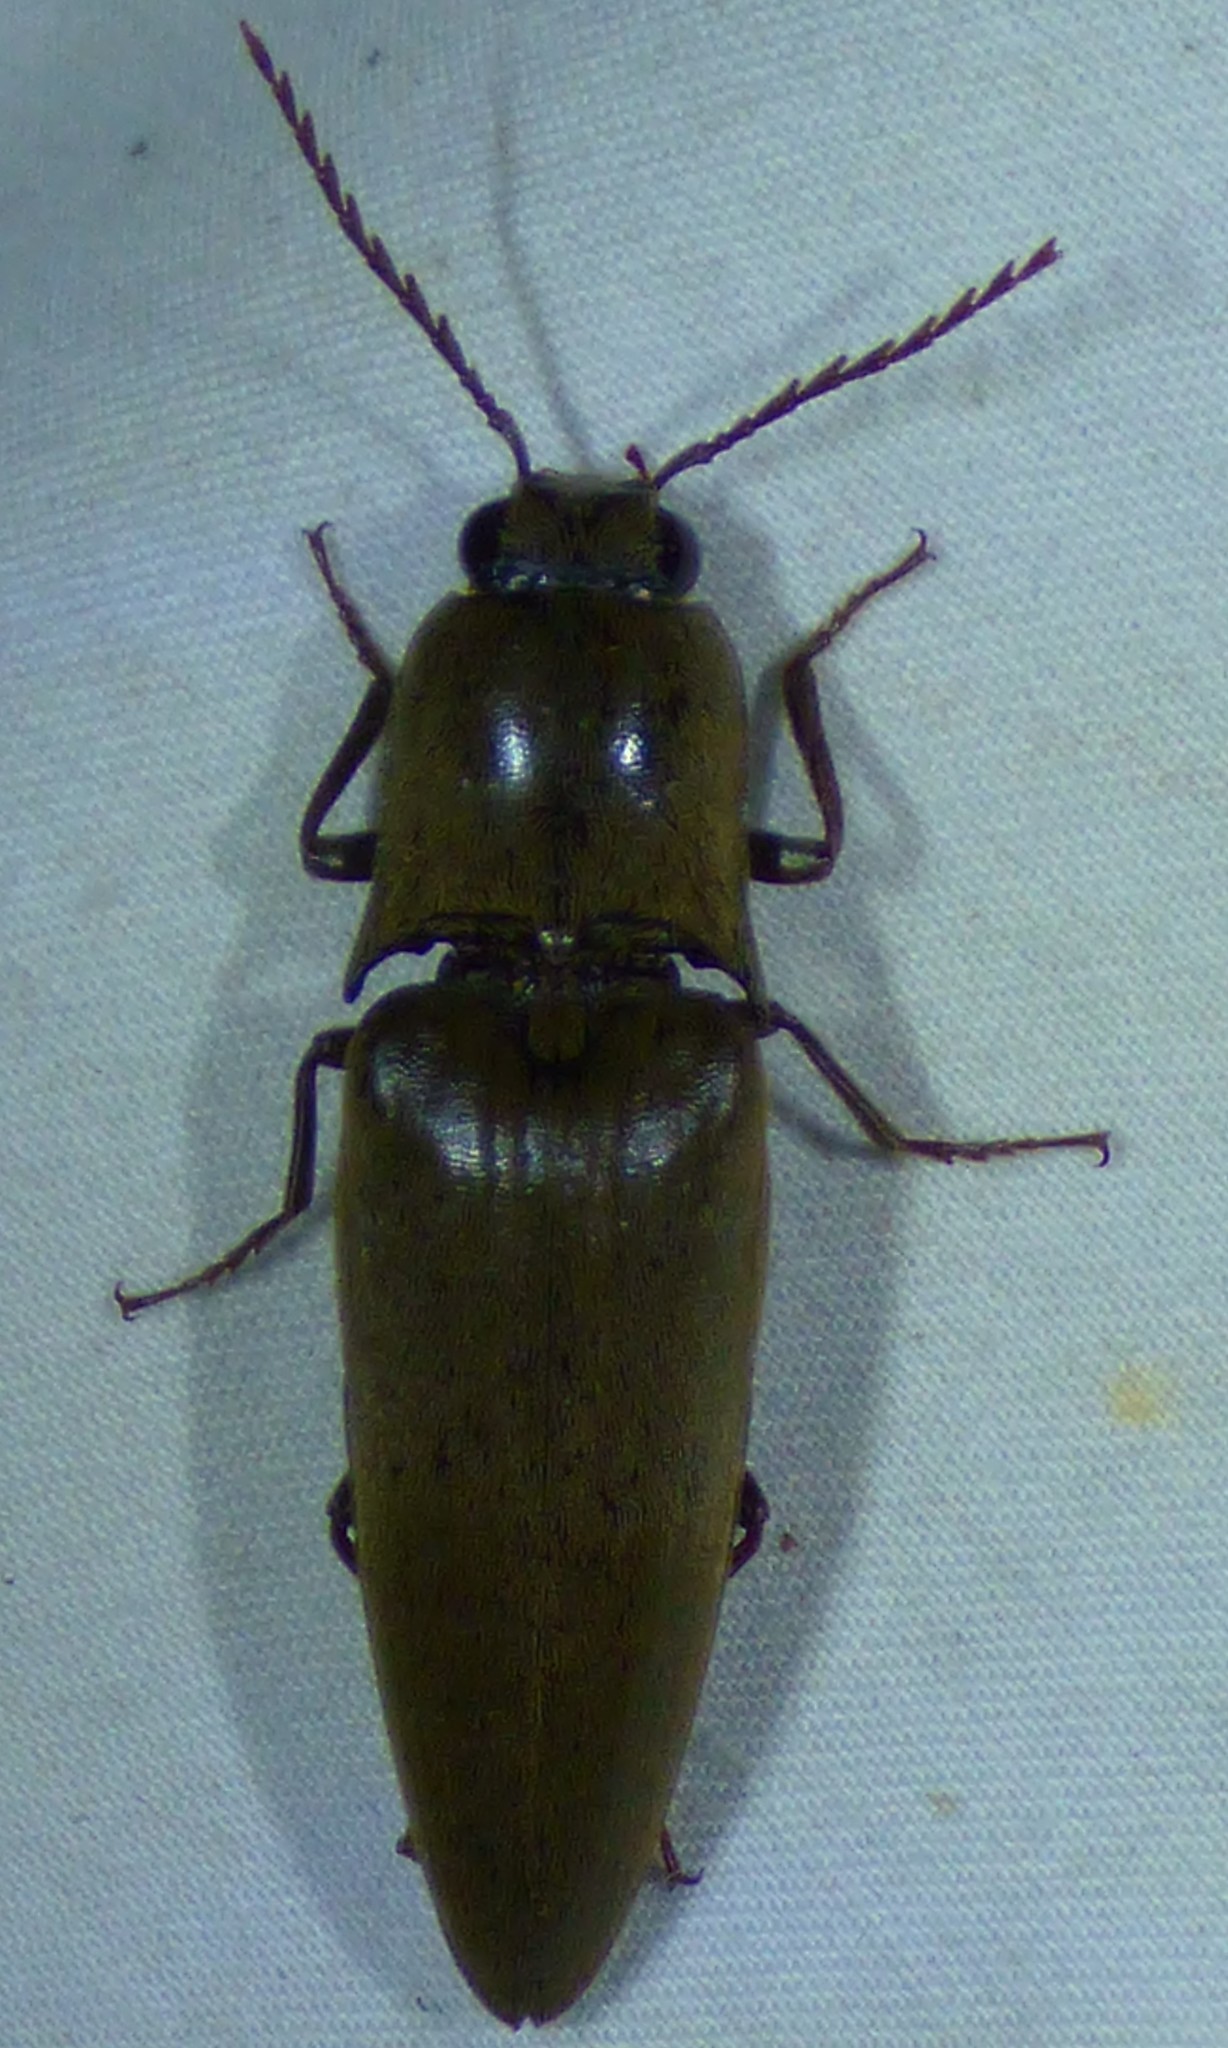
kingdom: Animalia
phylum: Arthropoda
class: Insecta
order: Coleoptera
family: Elateridae
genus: Orthostethus
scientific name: Orthostethus infuscatus
